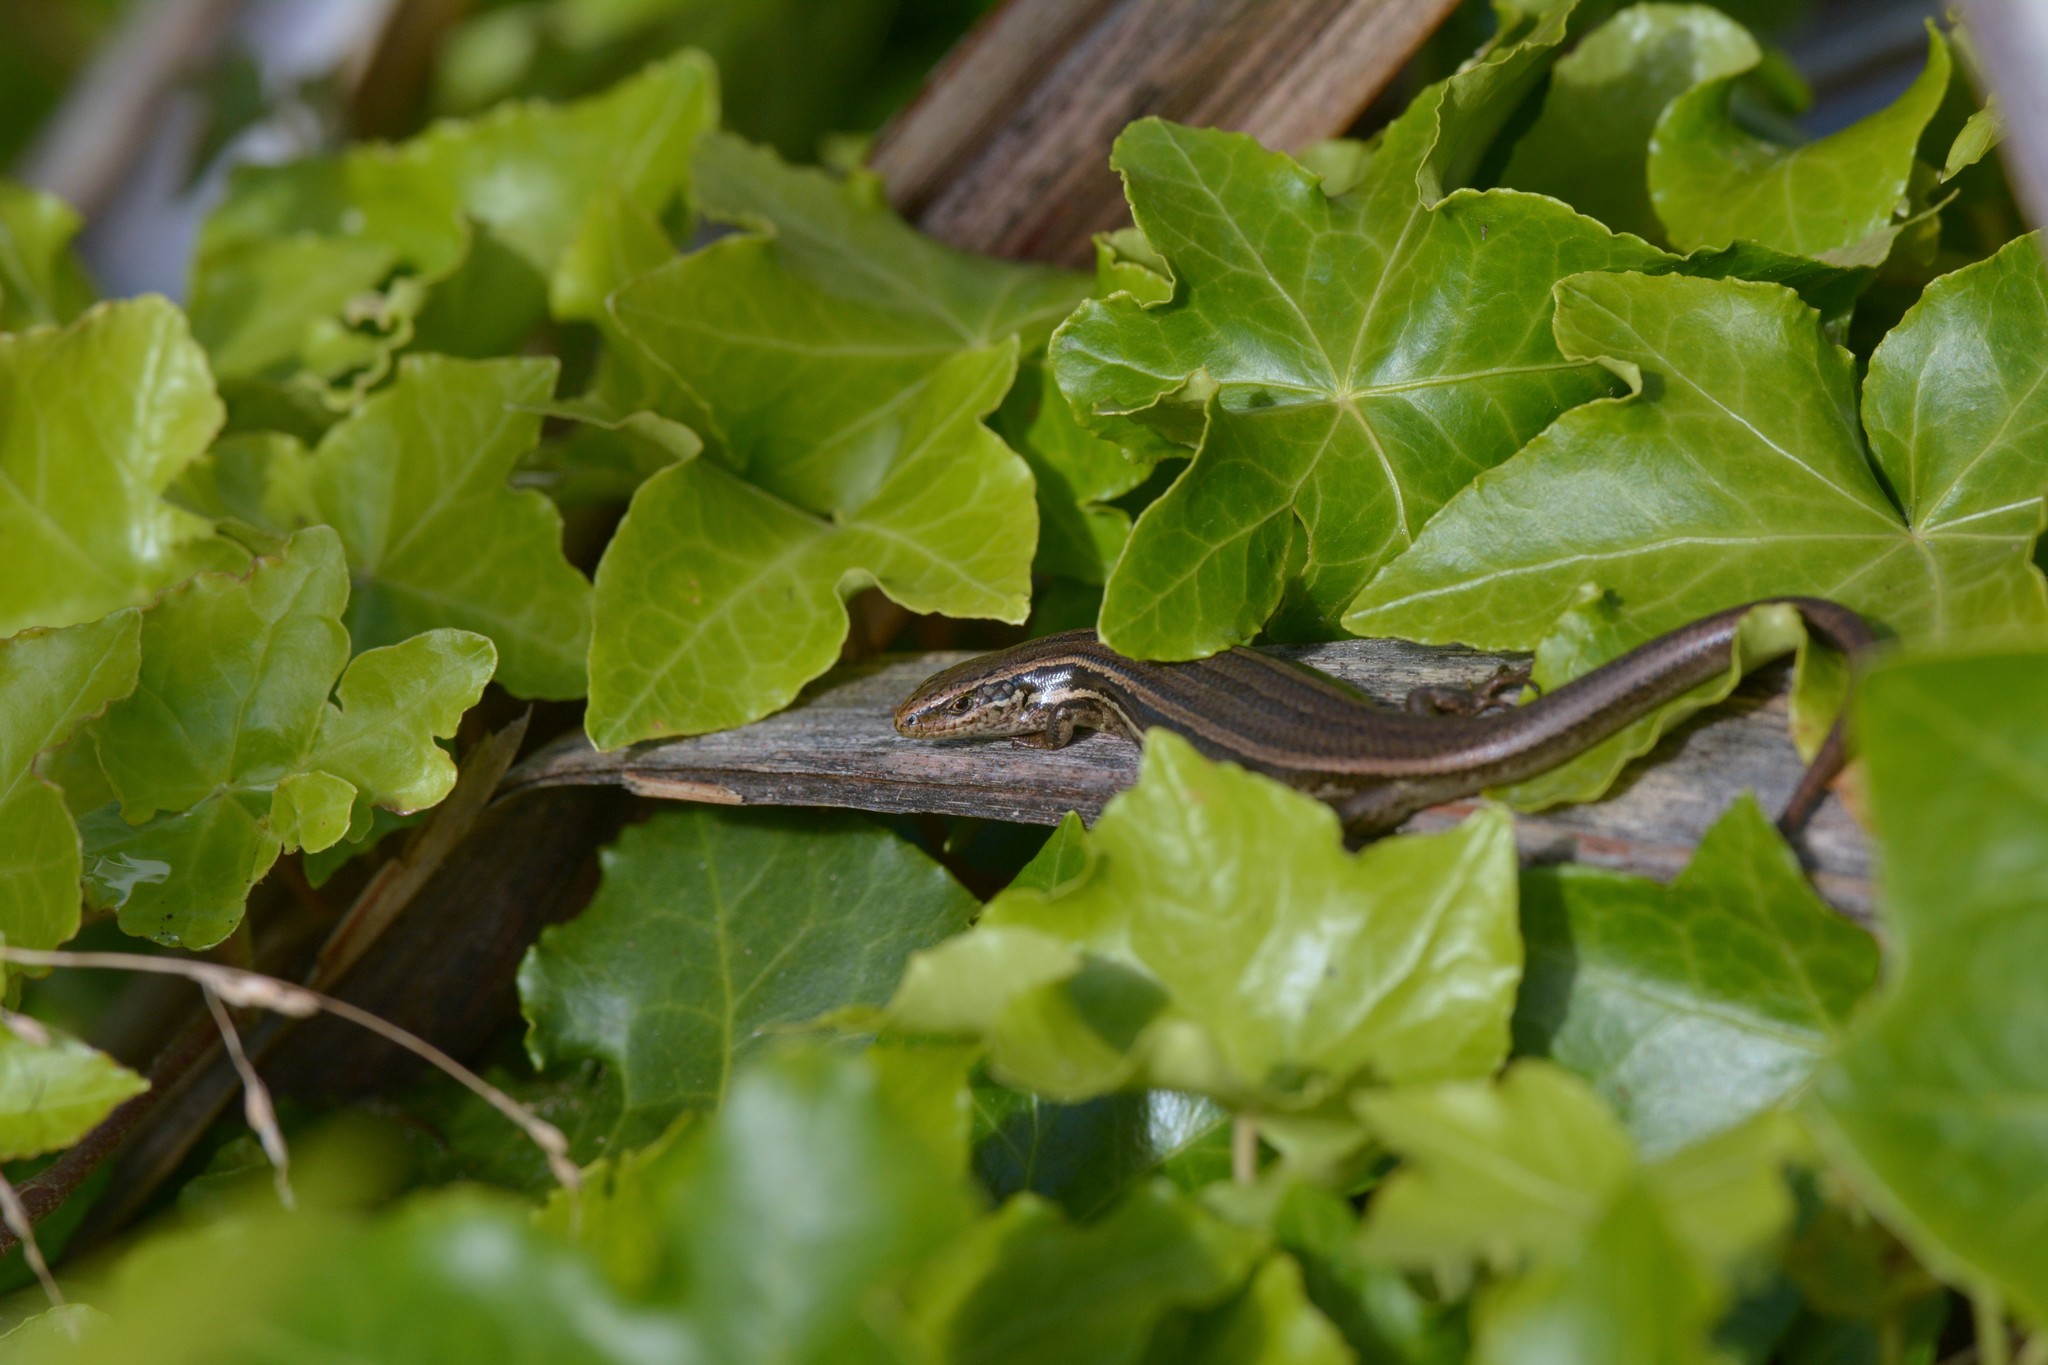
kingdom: Animalia
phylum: Chordata
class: Squamata
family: Scincidae
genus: Oligosoma
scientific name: Oligosoma polychroma
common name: Common new zealand skink
